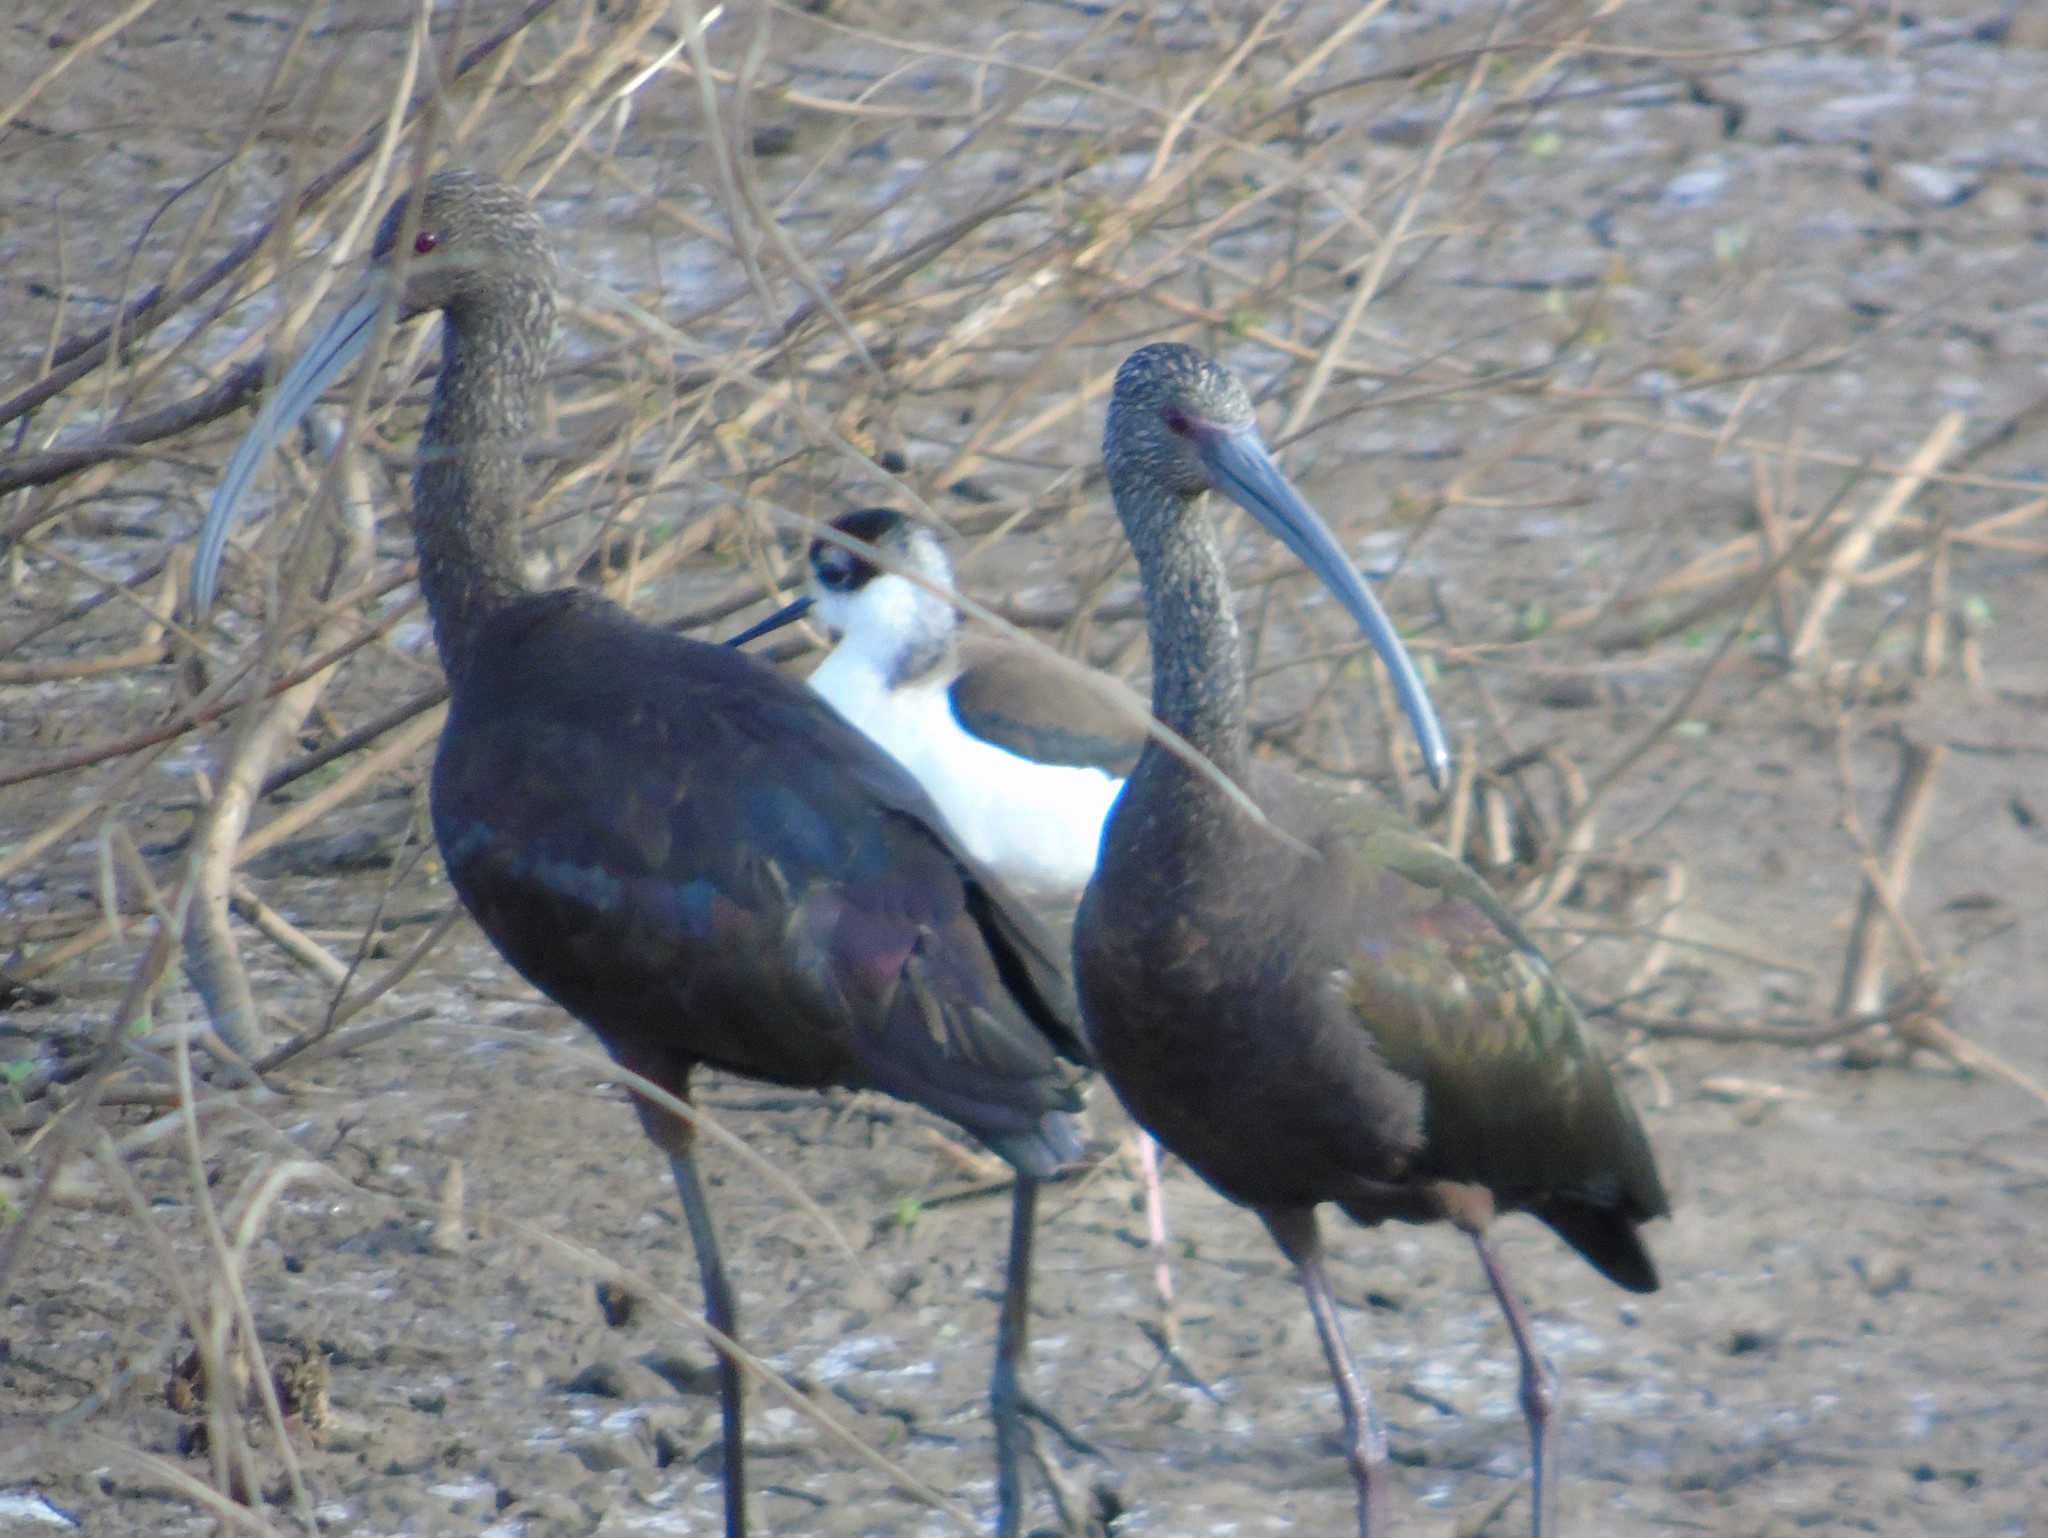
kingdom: Animalia
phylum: Chordata
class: Aves
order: Pelecaniformes
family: Threskiornithidae
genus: Plegadis
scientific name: Plegadis chihi
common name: White-faced ibis
